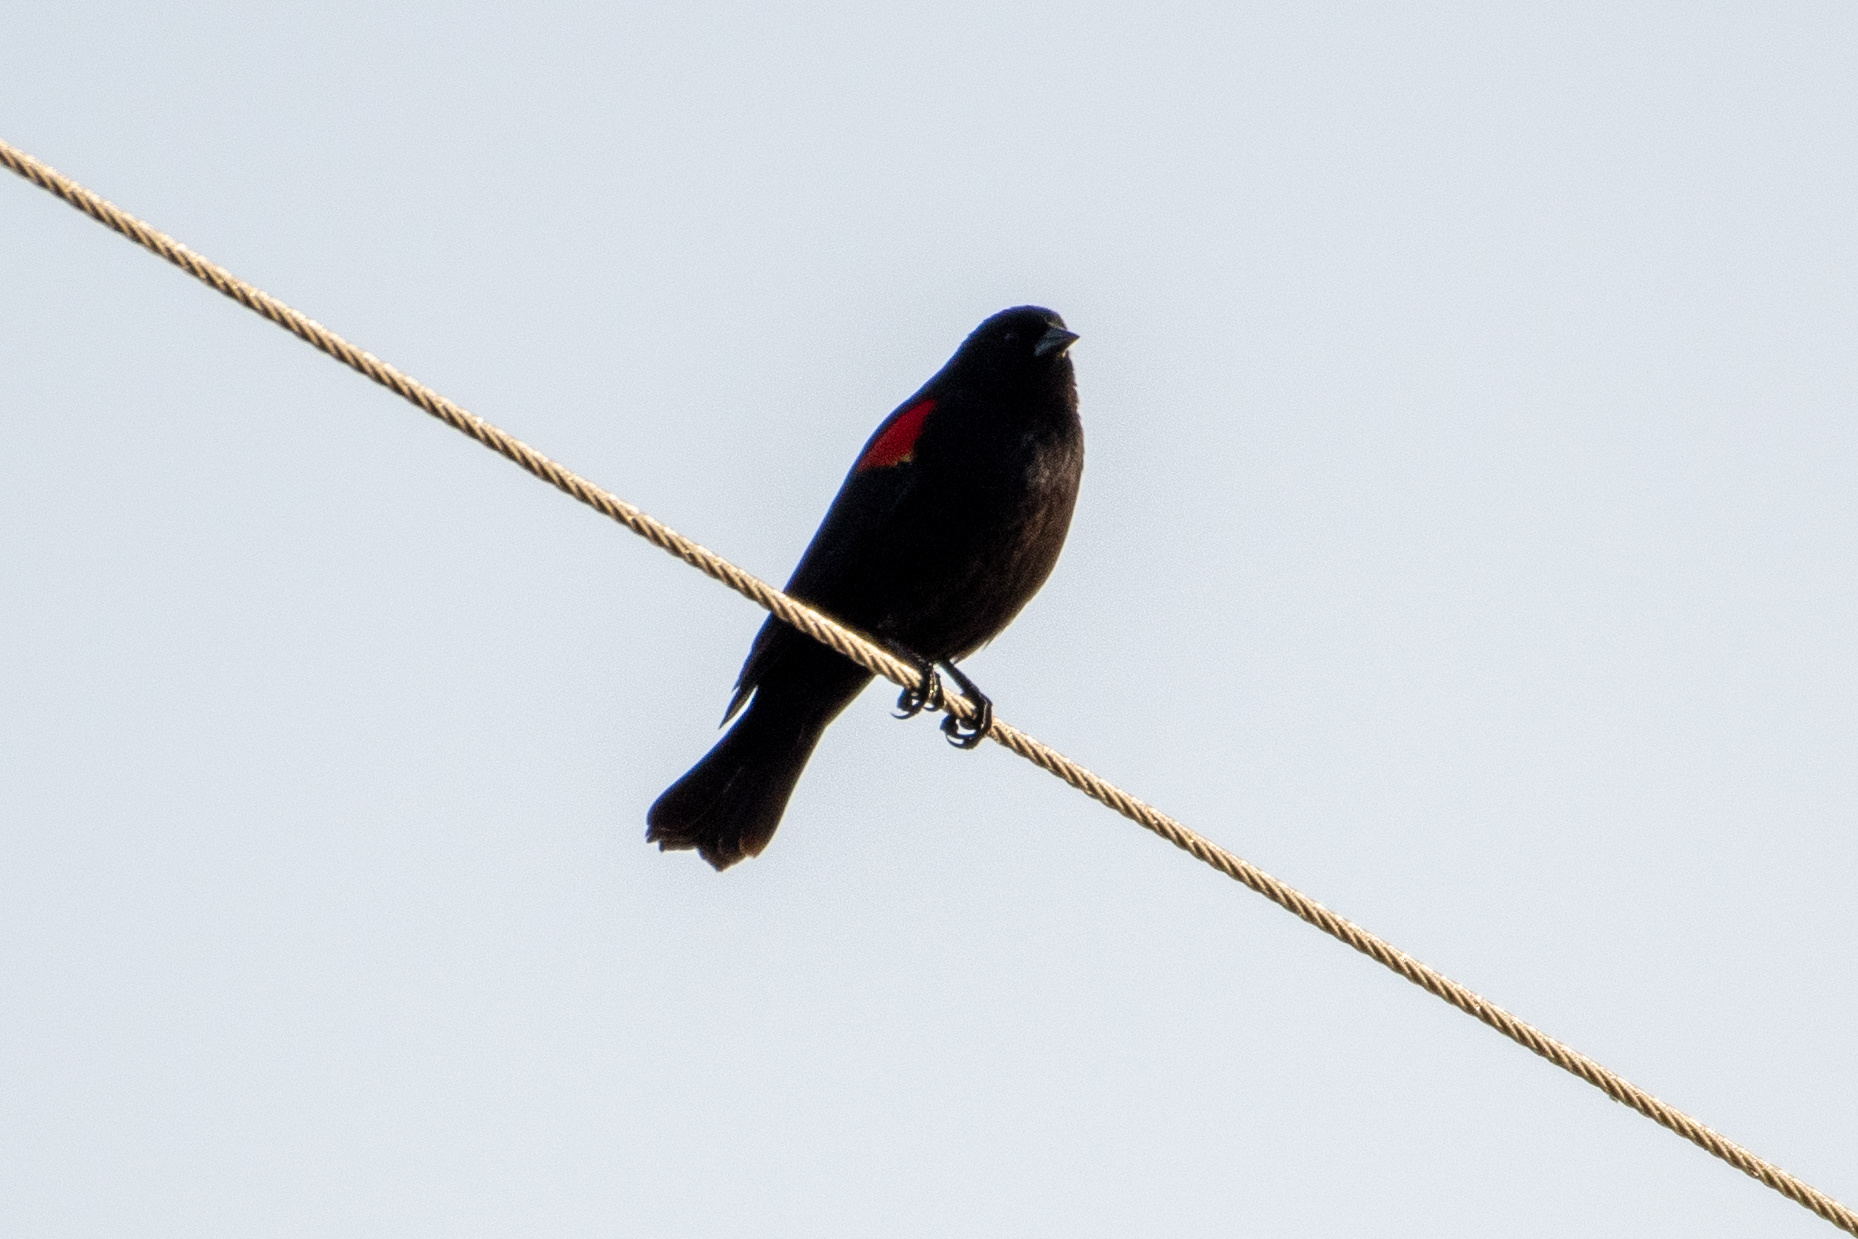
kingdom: Animalia
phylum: Chordata
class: Aves
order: Passeriformes
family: Icteridae
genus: Agelaius
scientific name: Agelaius phoeniceus
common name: Red-winged blackbird
